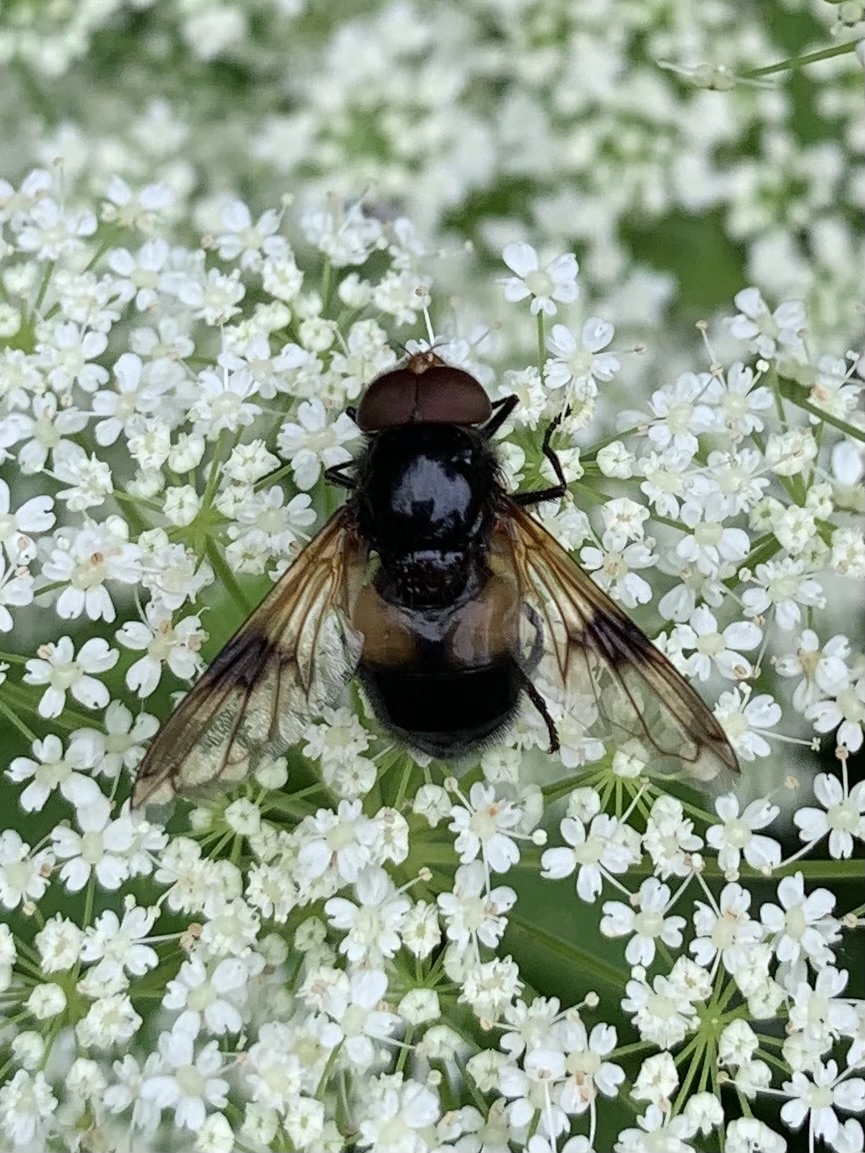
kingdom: Animalia
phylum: Arthropoda
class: Insecta
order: Diptera
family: Syrphidae
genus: Volucella
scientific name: Volucella pellucens
